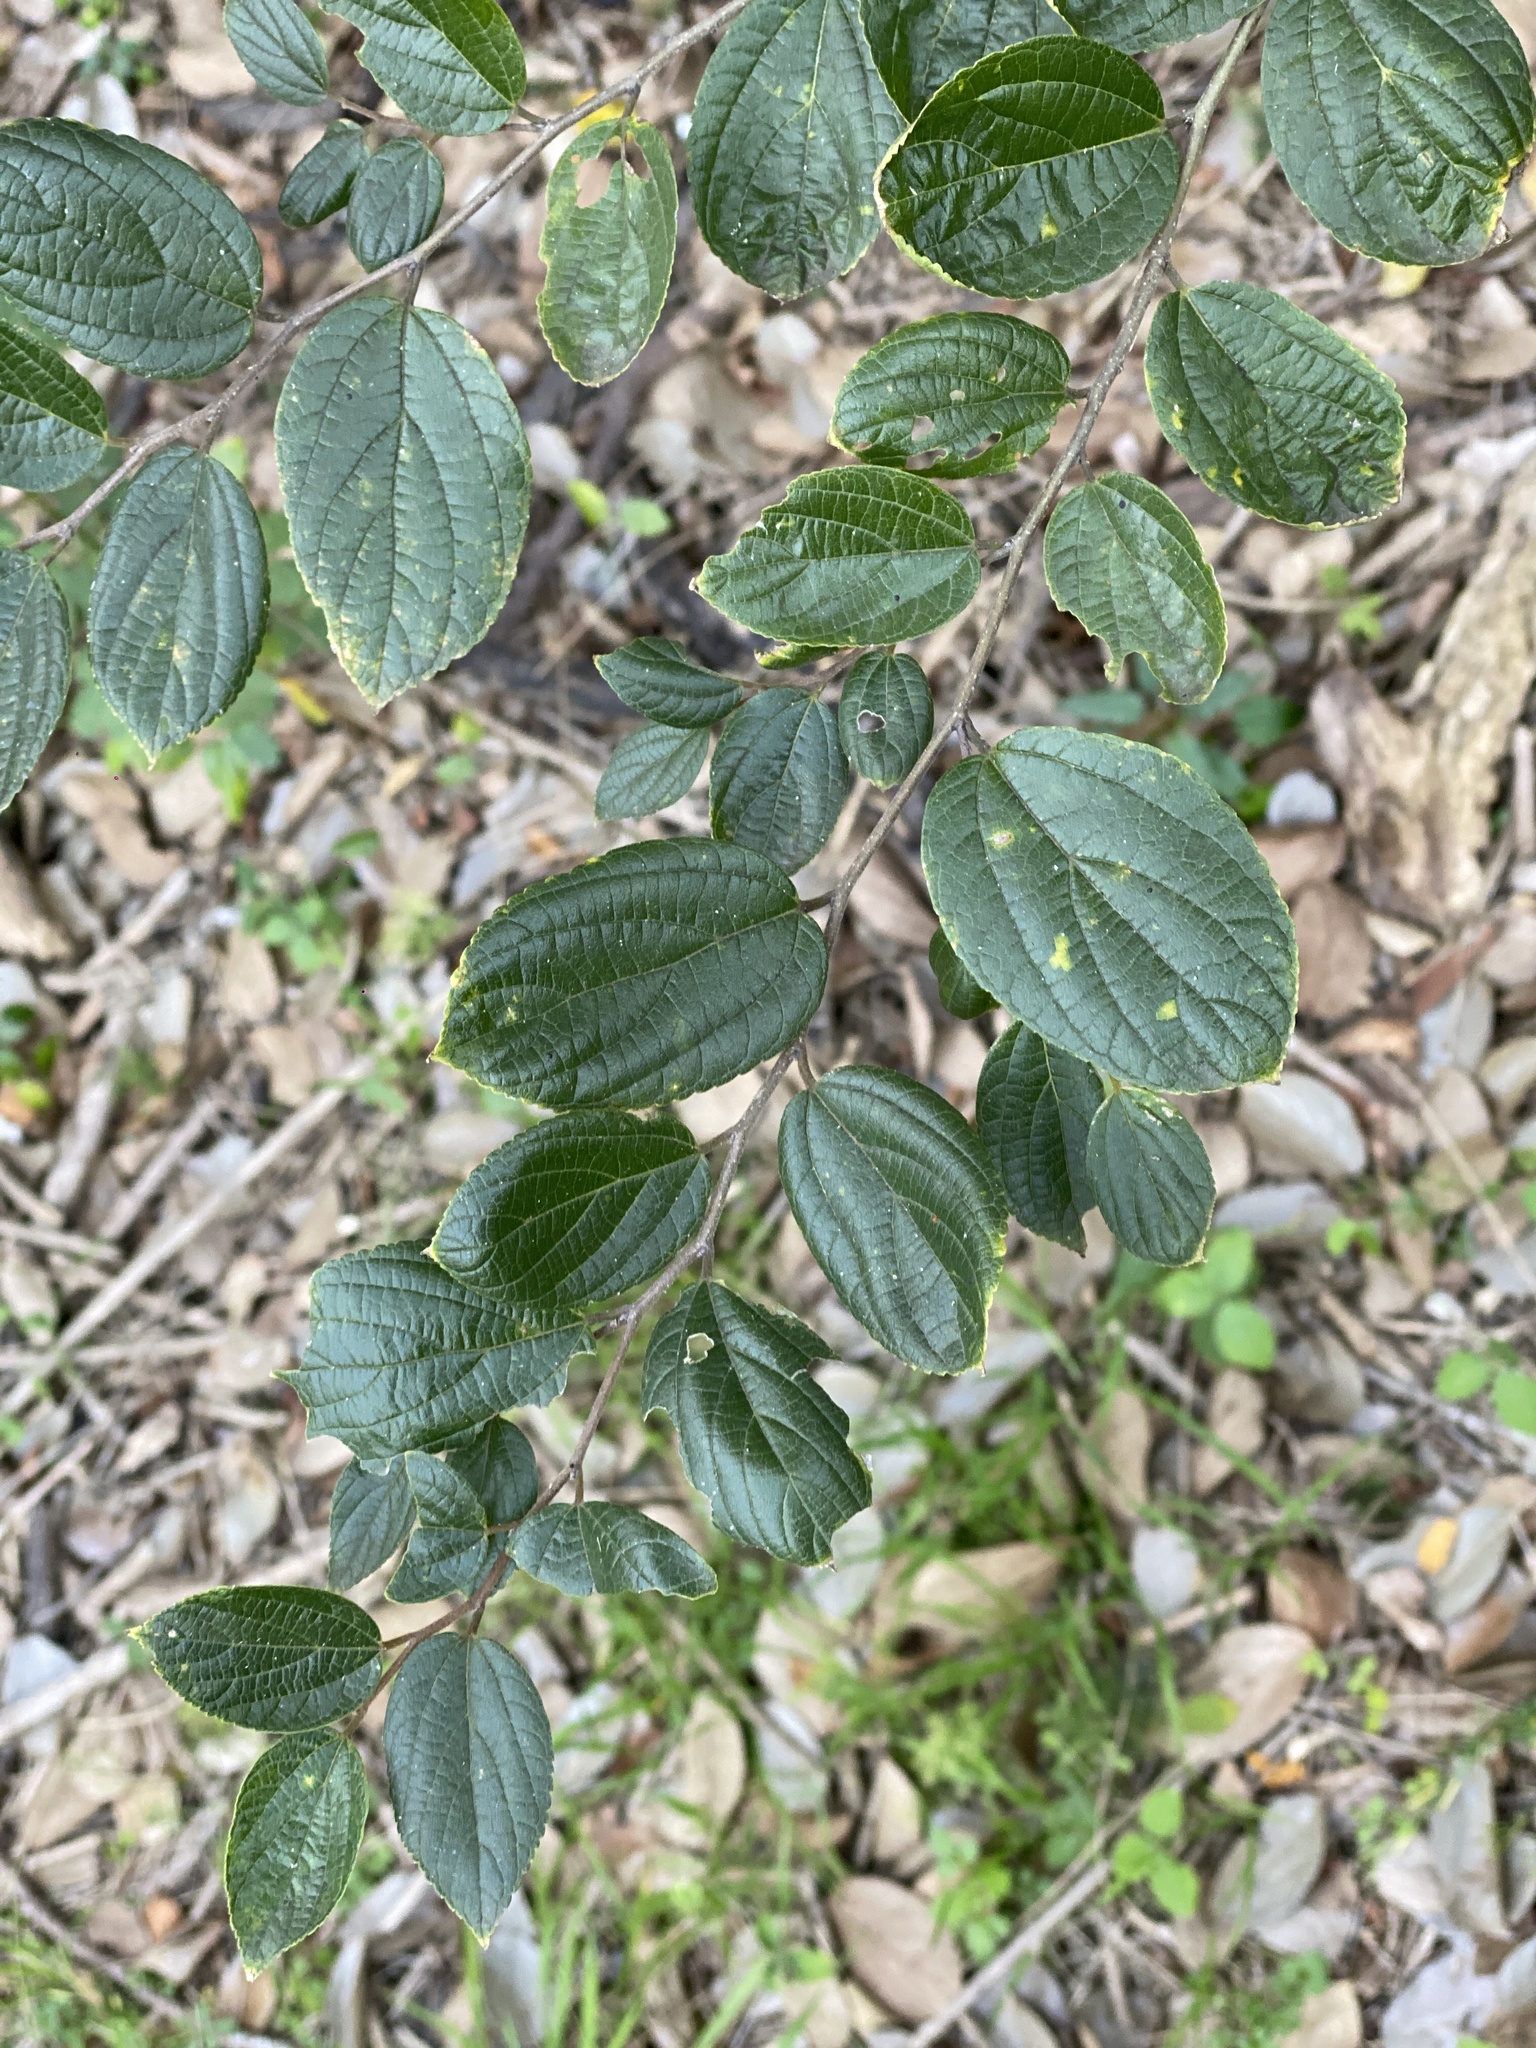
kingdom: Plantae
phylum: Tracheophyta
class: Magnoliopsida
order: Rosales
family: Cannabaceae
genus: Celtis
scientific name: Celtis sinensis
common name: Chinese hackberry
